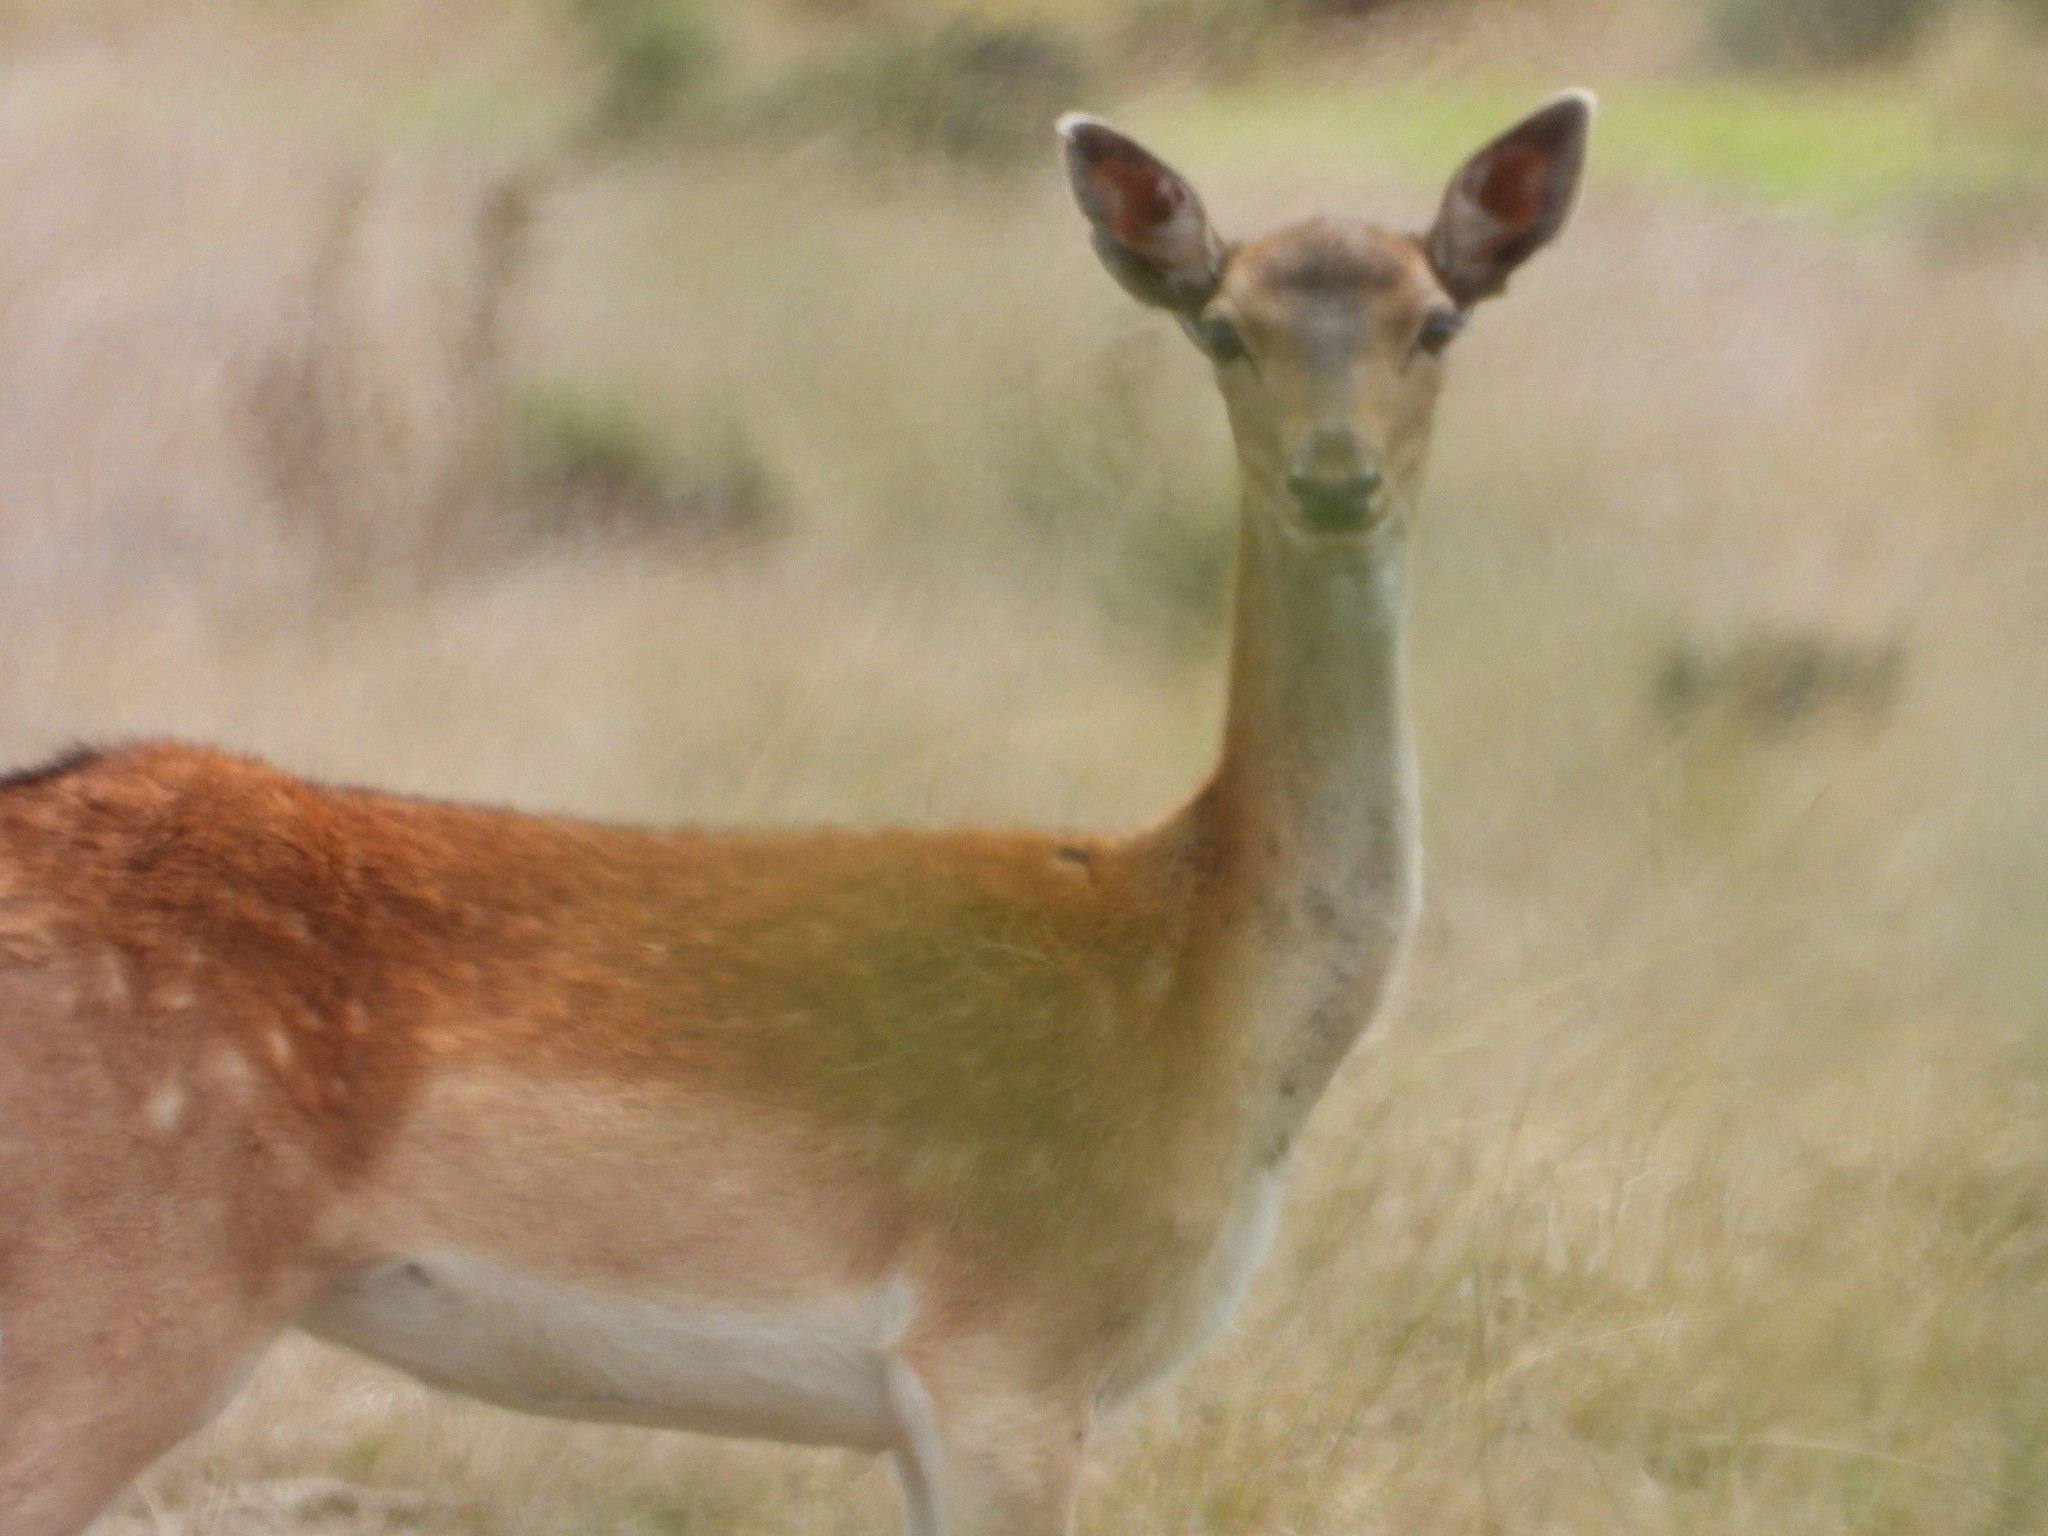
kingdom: Animalia
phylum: Chordata
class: Mammalia
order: Artiodactyla
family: Cervidae
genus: Dama
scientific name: Dama dama
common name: Fallow deer
